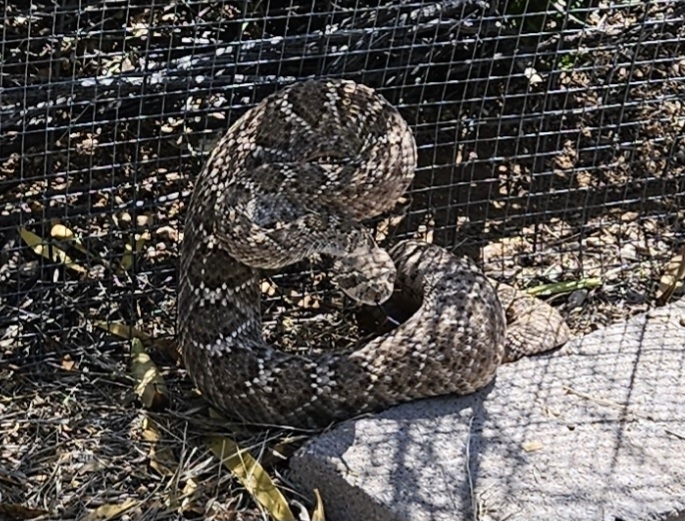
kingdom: Animalia
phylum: Chordata
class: Squamata
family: Viperidae
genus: Crotalus
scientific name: Crotalus atrox
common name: Western diamond-backed rattlesnake
